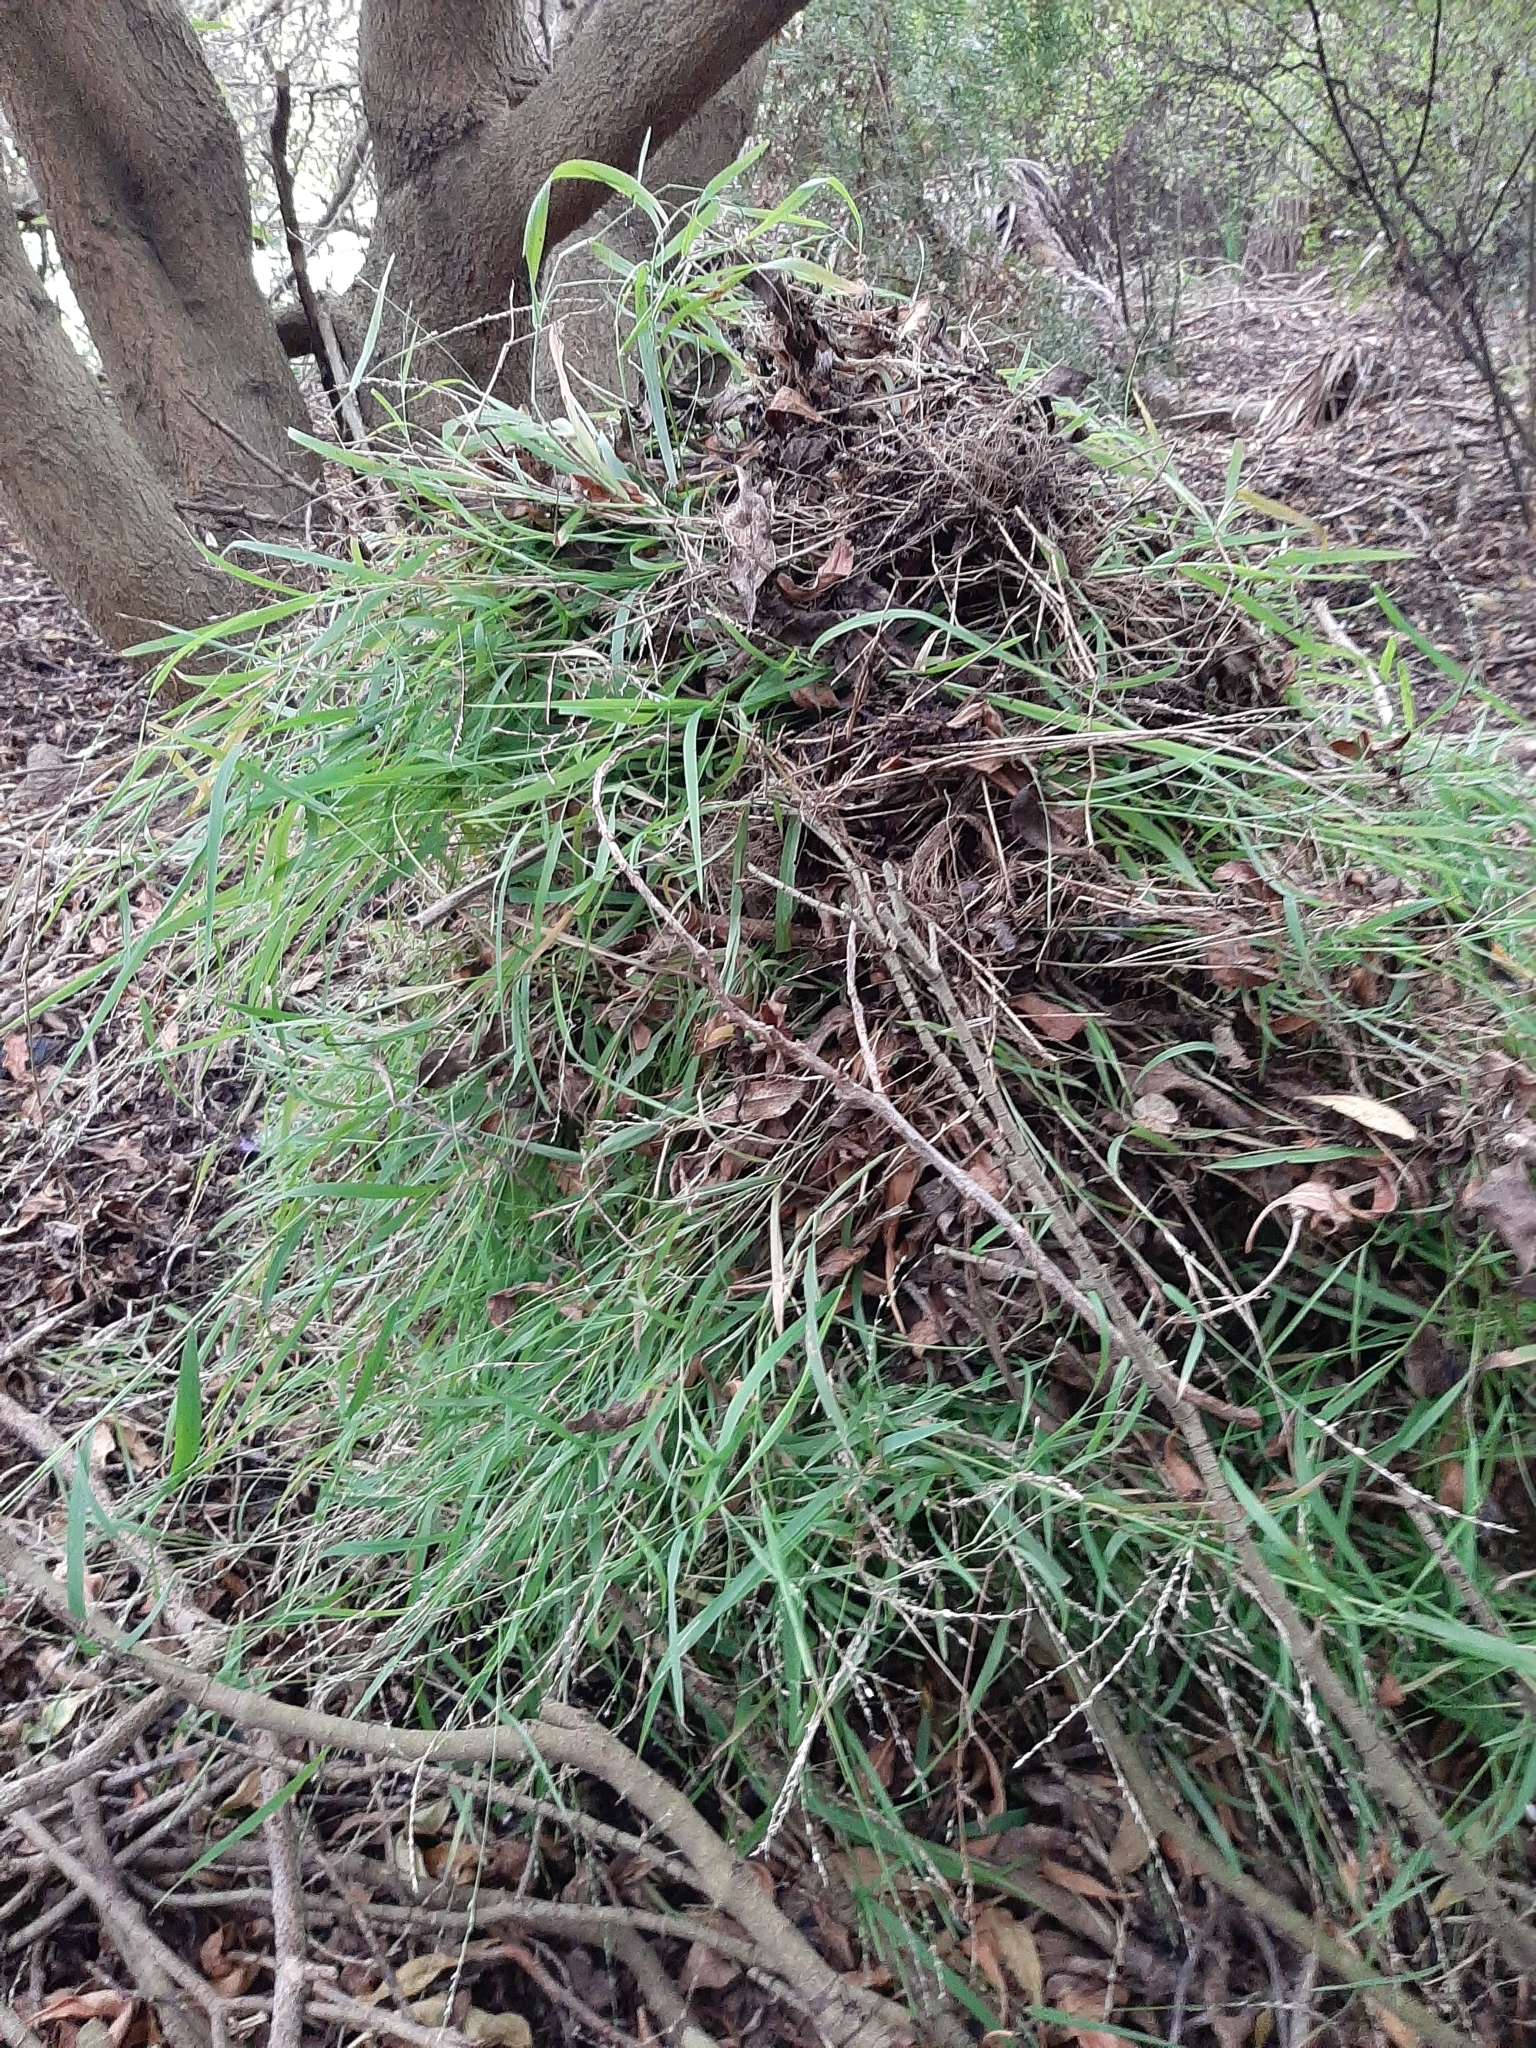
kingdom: Plantae
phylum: Tracheophyta
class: Liliopsida
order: Poales
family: Poaceae
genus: Ehrharta
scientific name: Ehrharta erecta
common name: Panic veldtgrass
